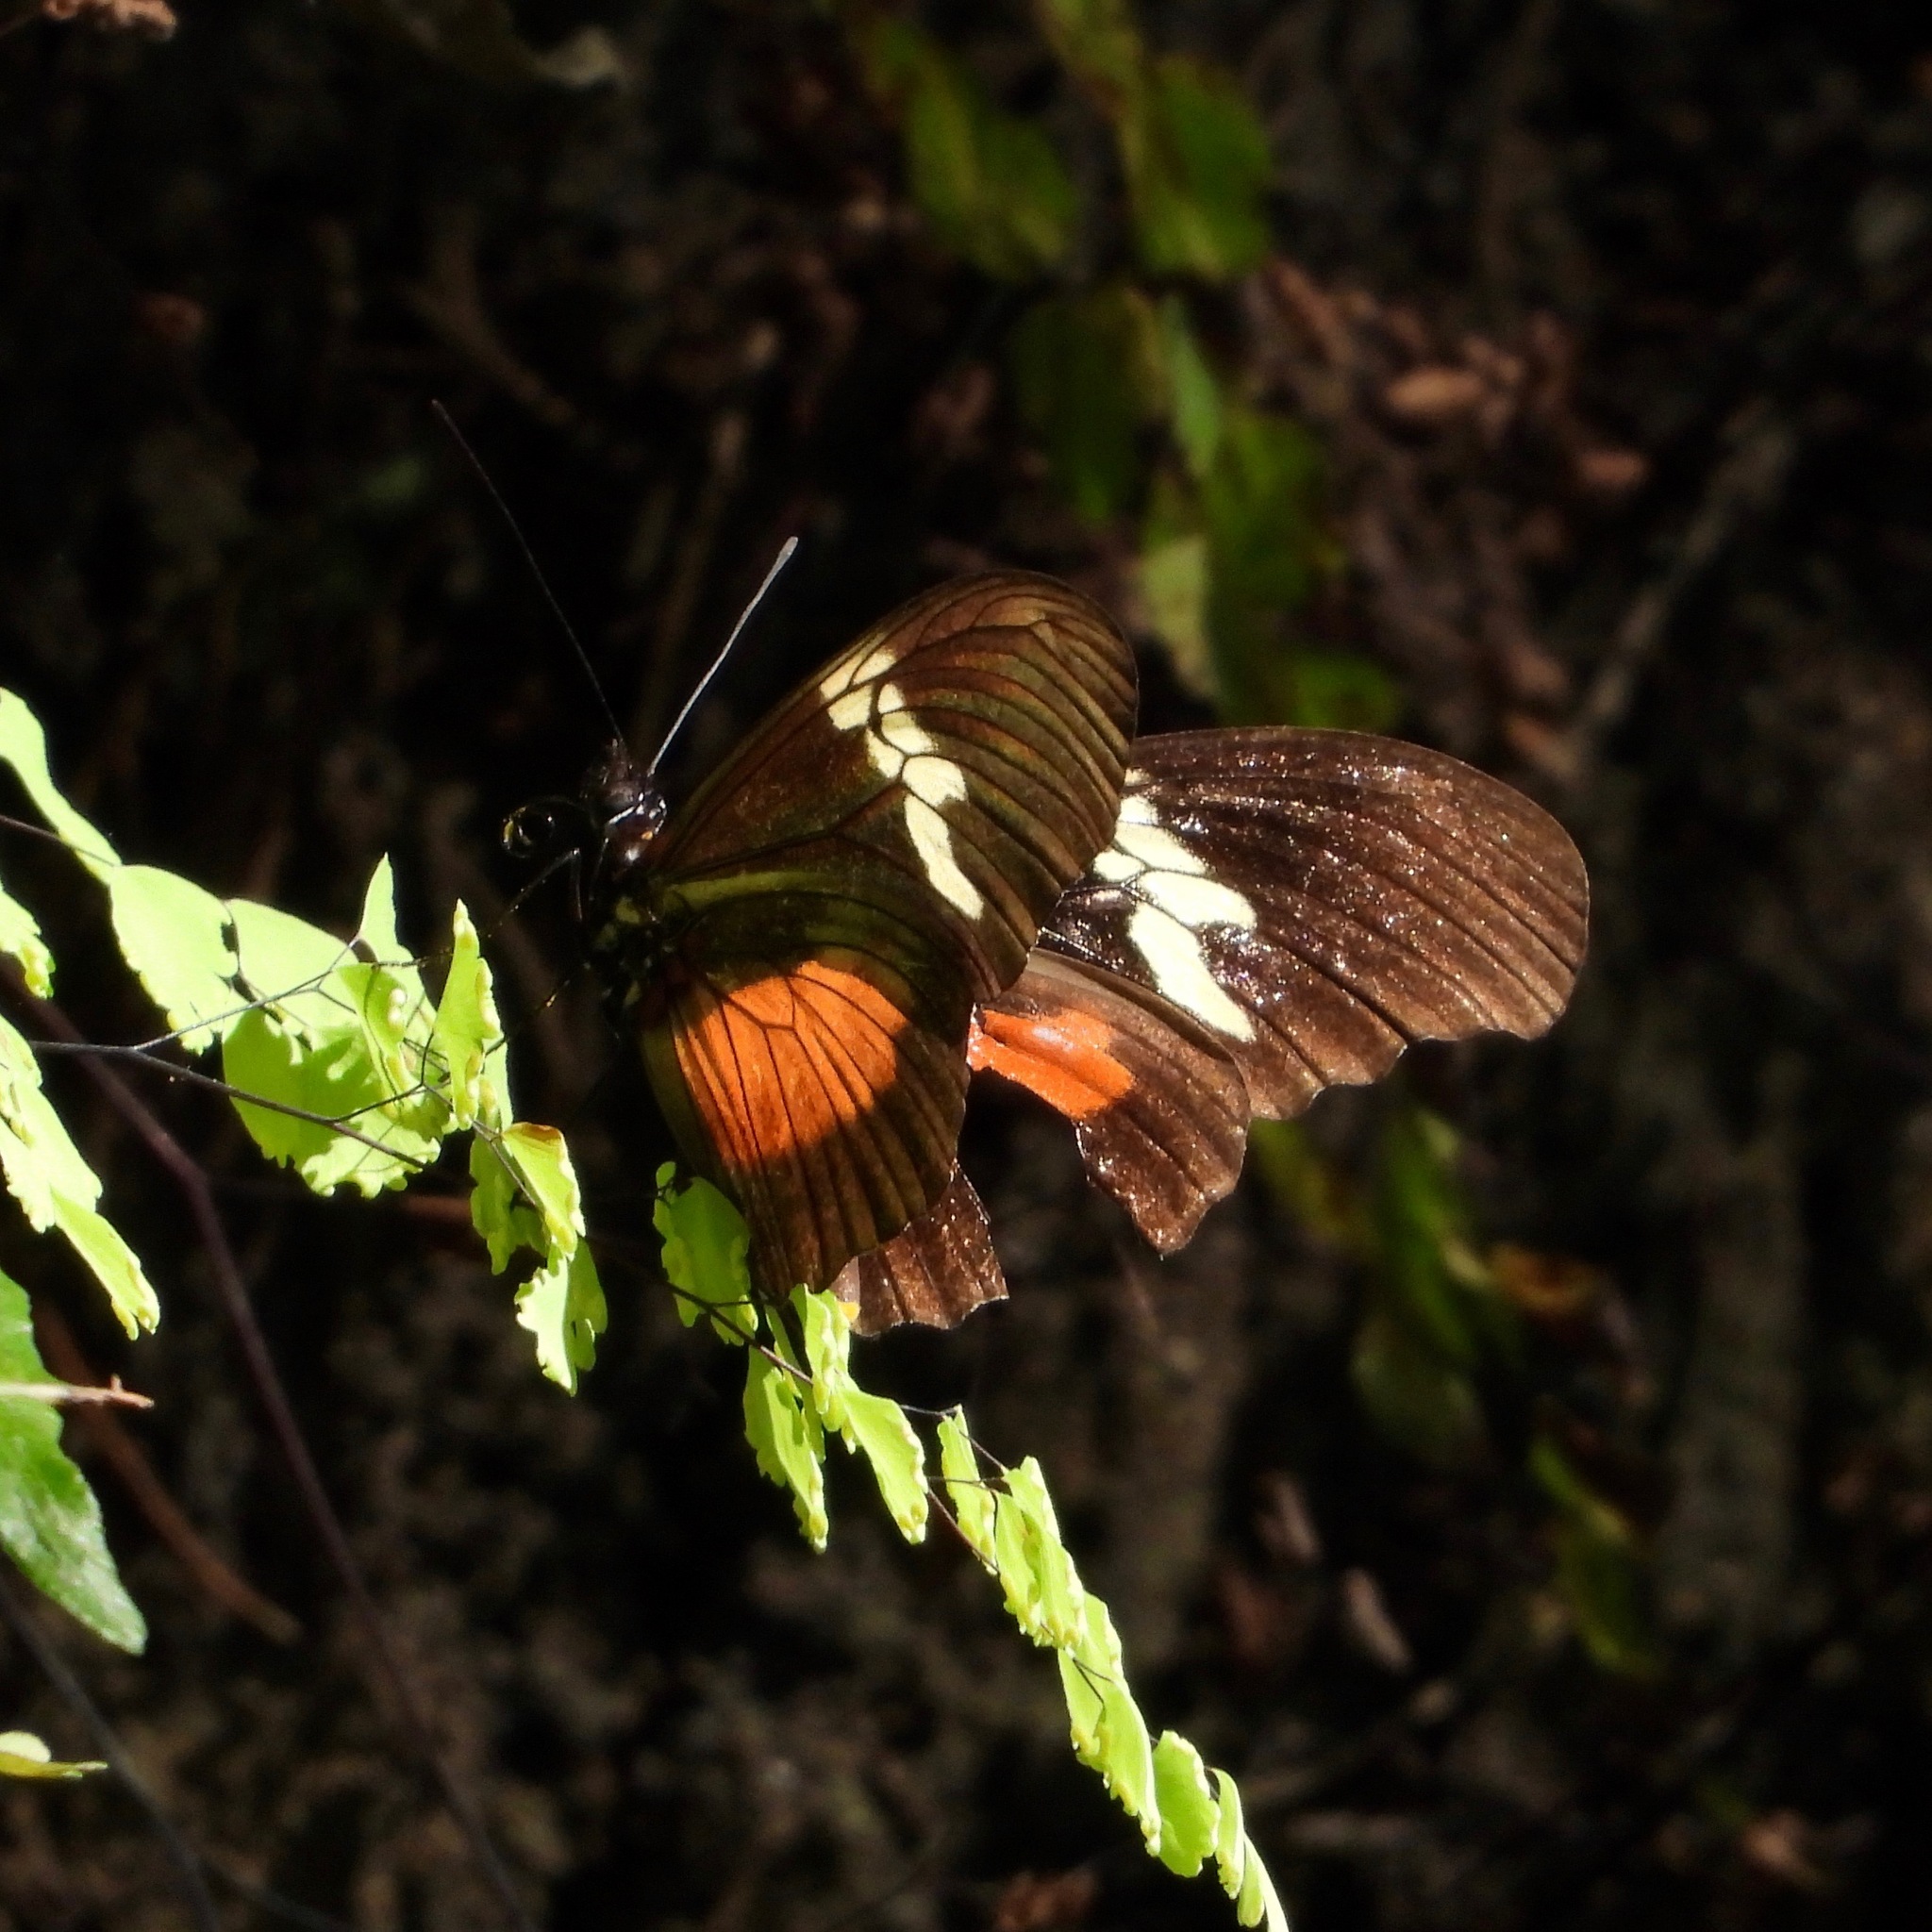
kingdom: Animalia
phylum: Arthropoda
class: Insecta
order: Lepidoptera
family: Nymphalidae
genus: Heliconius
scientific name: Heliconius hortense
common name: Mexican longwing
